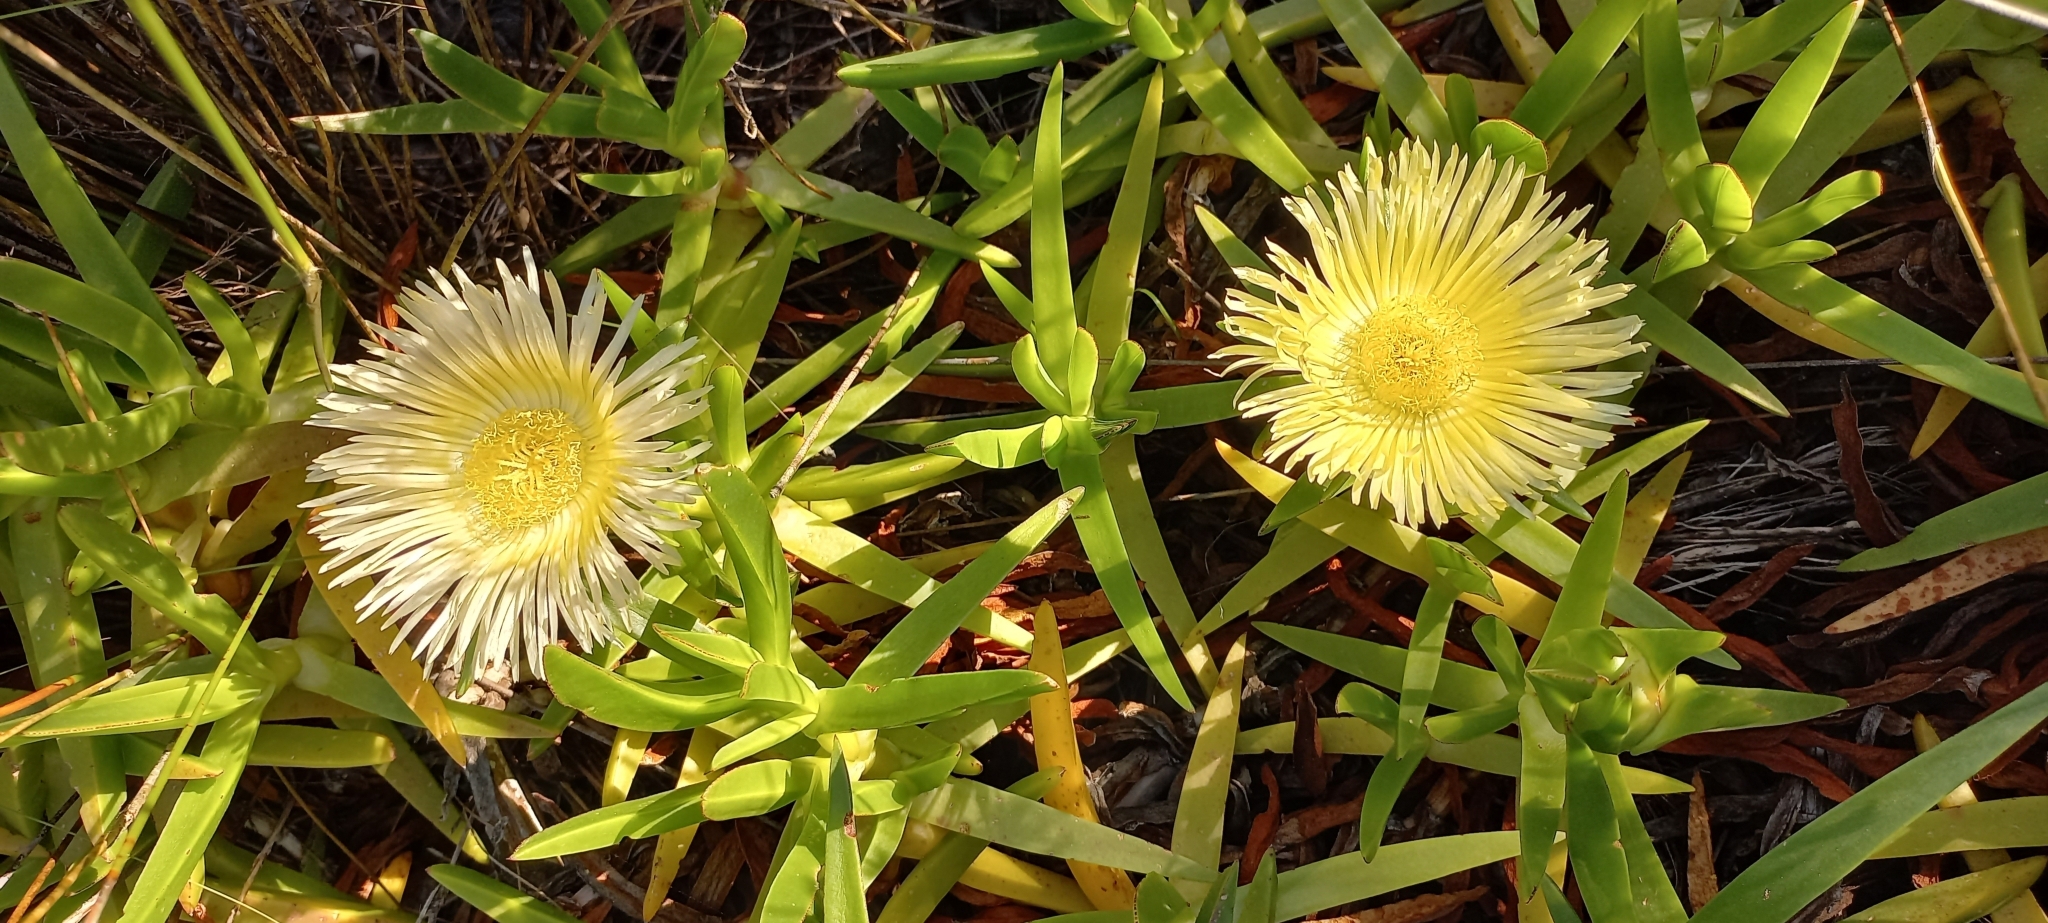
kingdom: Plantae
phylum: Tracheophyta
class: Magnoliopsida
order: Caryophyllales
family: Aizoaceae
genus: Carpobrotus
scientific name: Carpobrotus edulis
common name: Hottentot-fig
